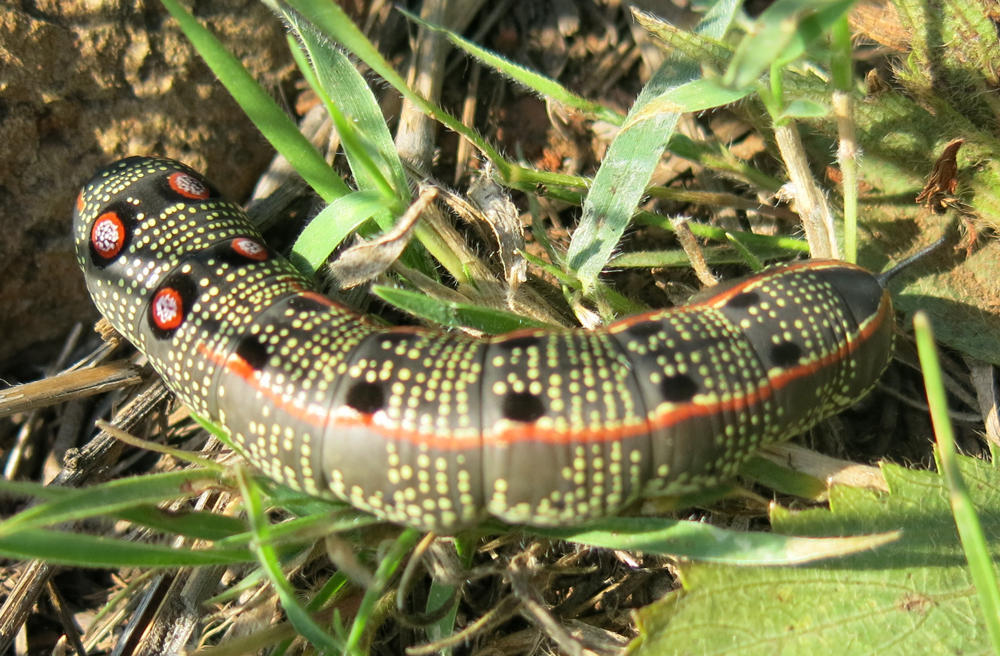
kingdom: Animalia
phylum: Arthropoda
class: Insecta
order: Lepidoptera
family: Sphingidae
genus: Basiothia
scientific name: Basiothia schenki
